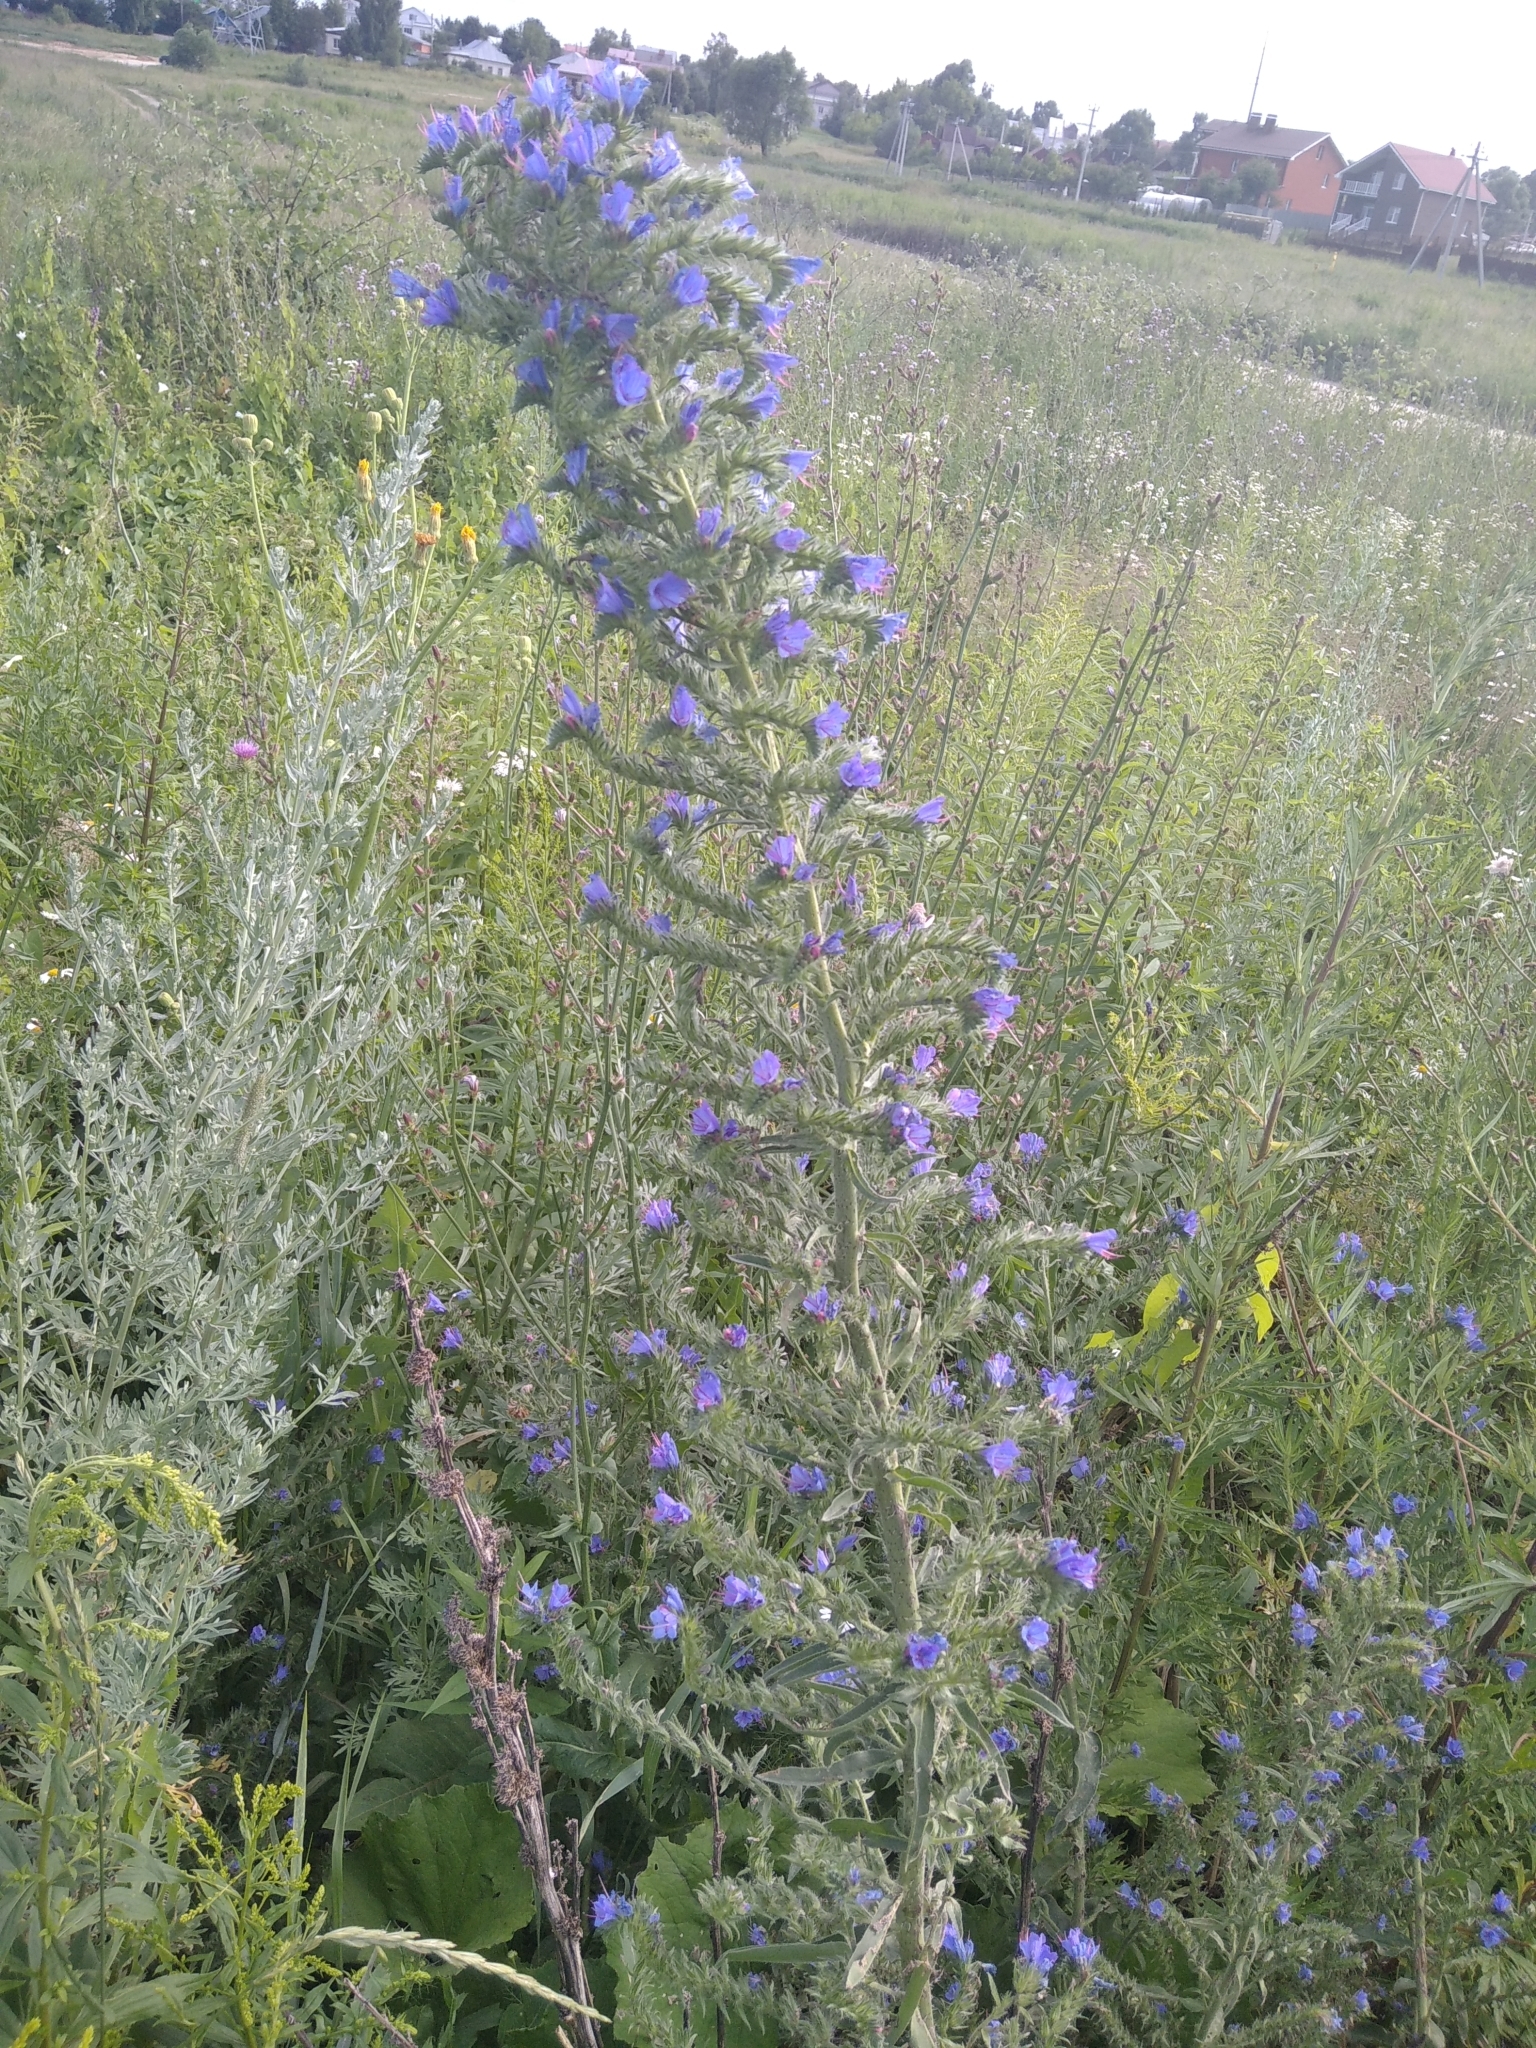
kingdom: Plantae
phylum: Tracheophyta
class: Magnoliopsida
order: Boraginales
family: Boraginaceae
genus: Echium
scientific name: Echium vulgare
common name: Common viper's bugloss
